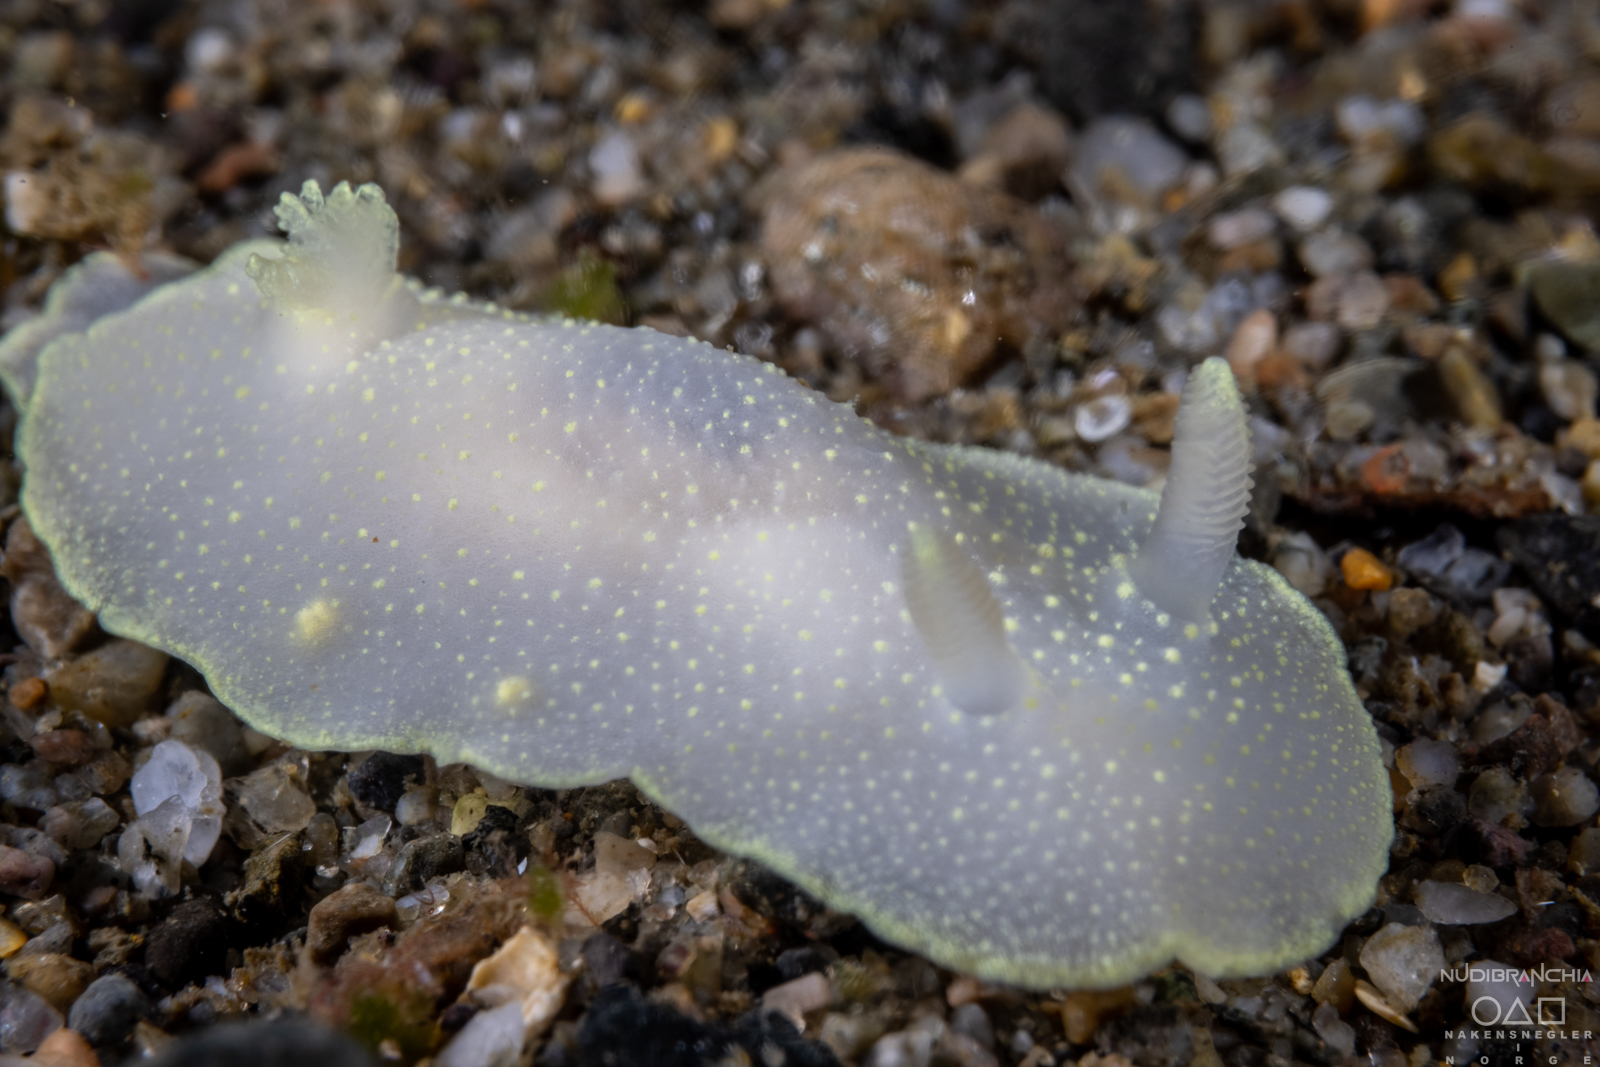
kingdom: Animalia
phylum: Mollusca
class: Gastropoda
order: Nudibranchia
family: Cadlinidae
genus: Cadlina
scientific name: Cadlina laevis
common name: White atlantic cadlina
